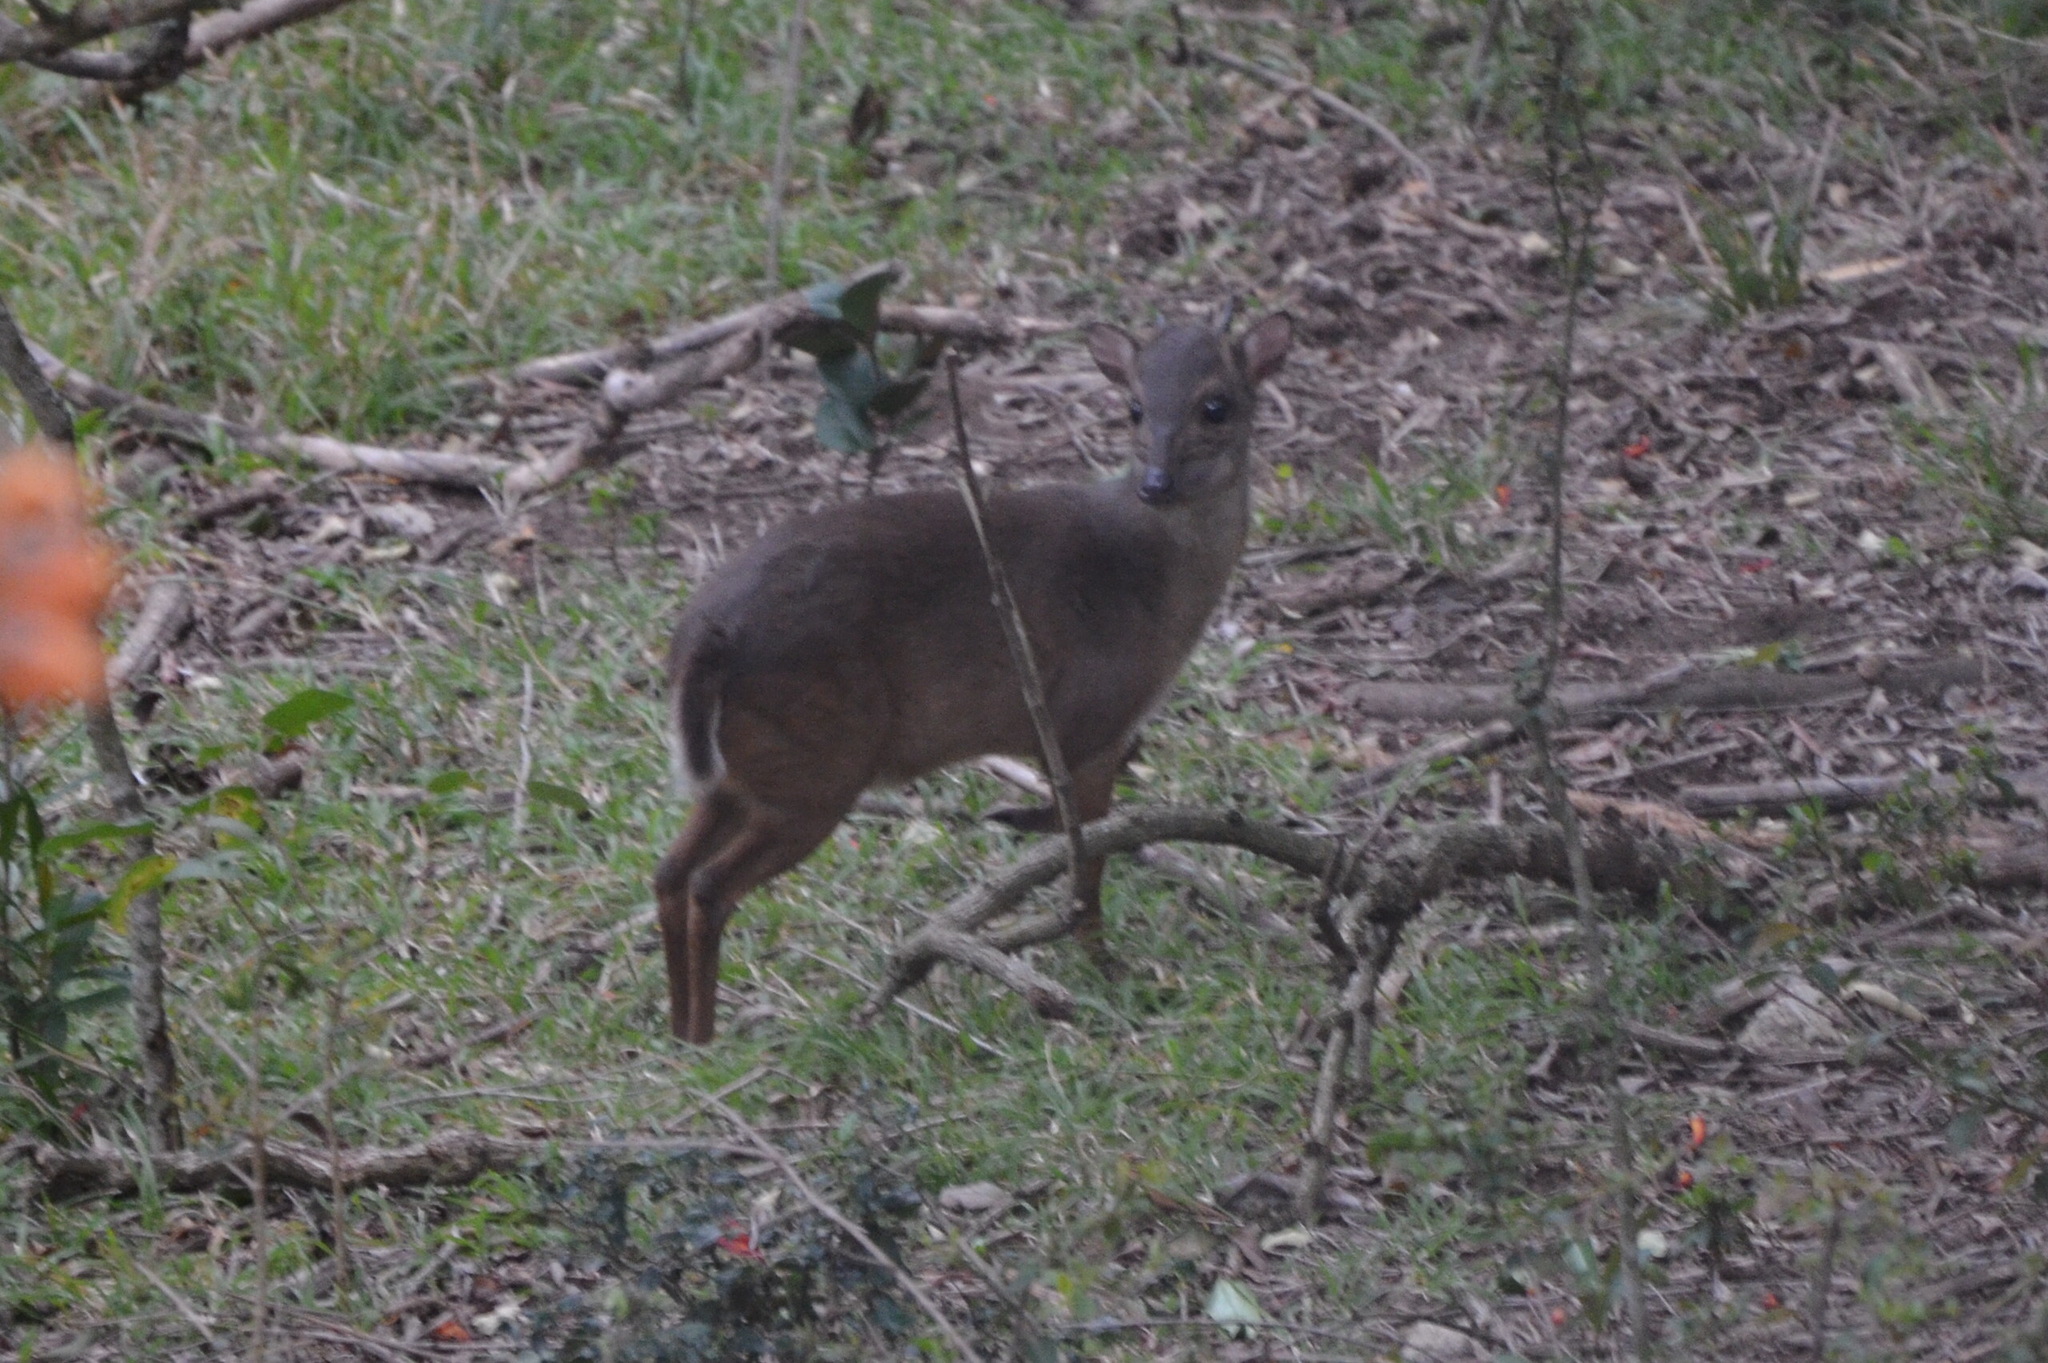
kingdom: Animalia
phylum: Chordata
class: Mammalia
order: Artiodactyla
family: Bovidae
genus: Philantomba
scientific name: Philantomba monticola
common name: Blue duiker
